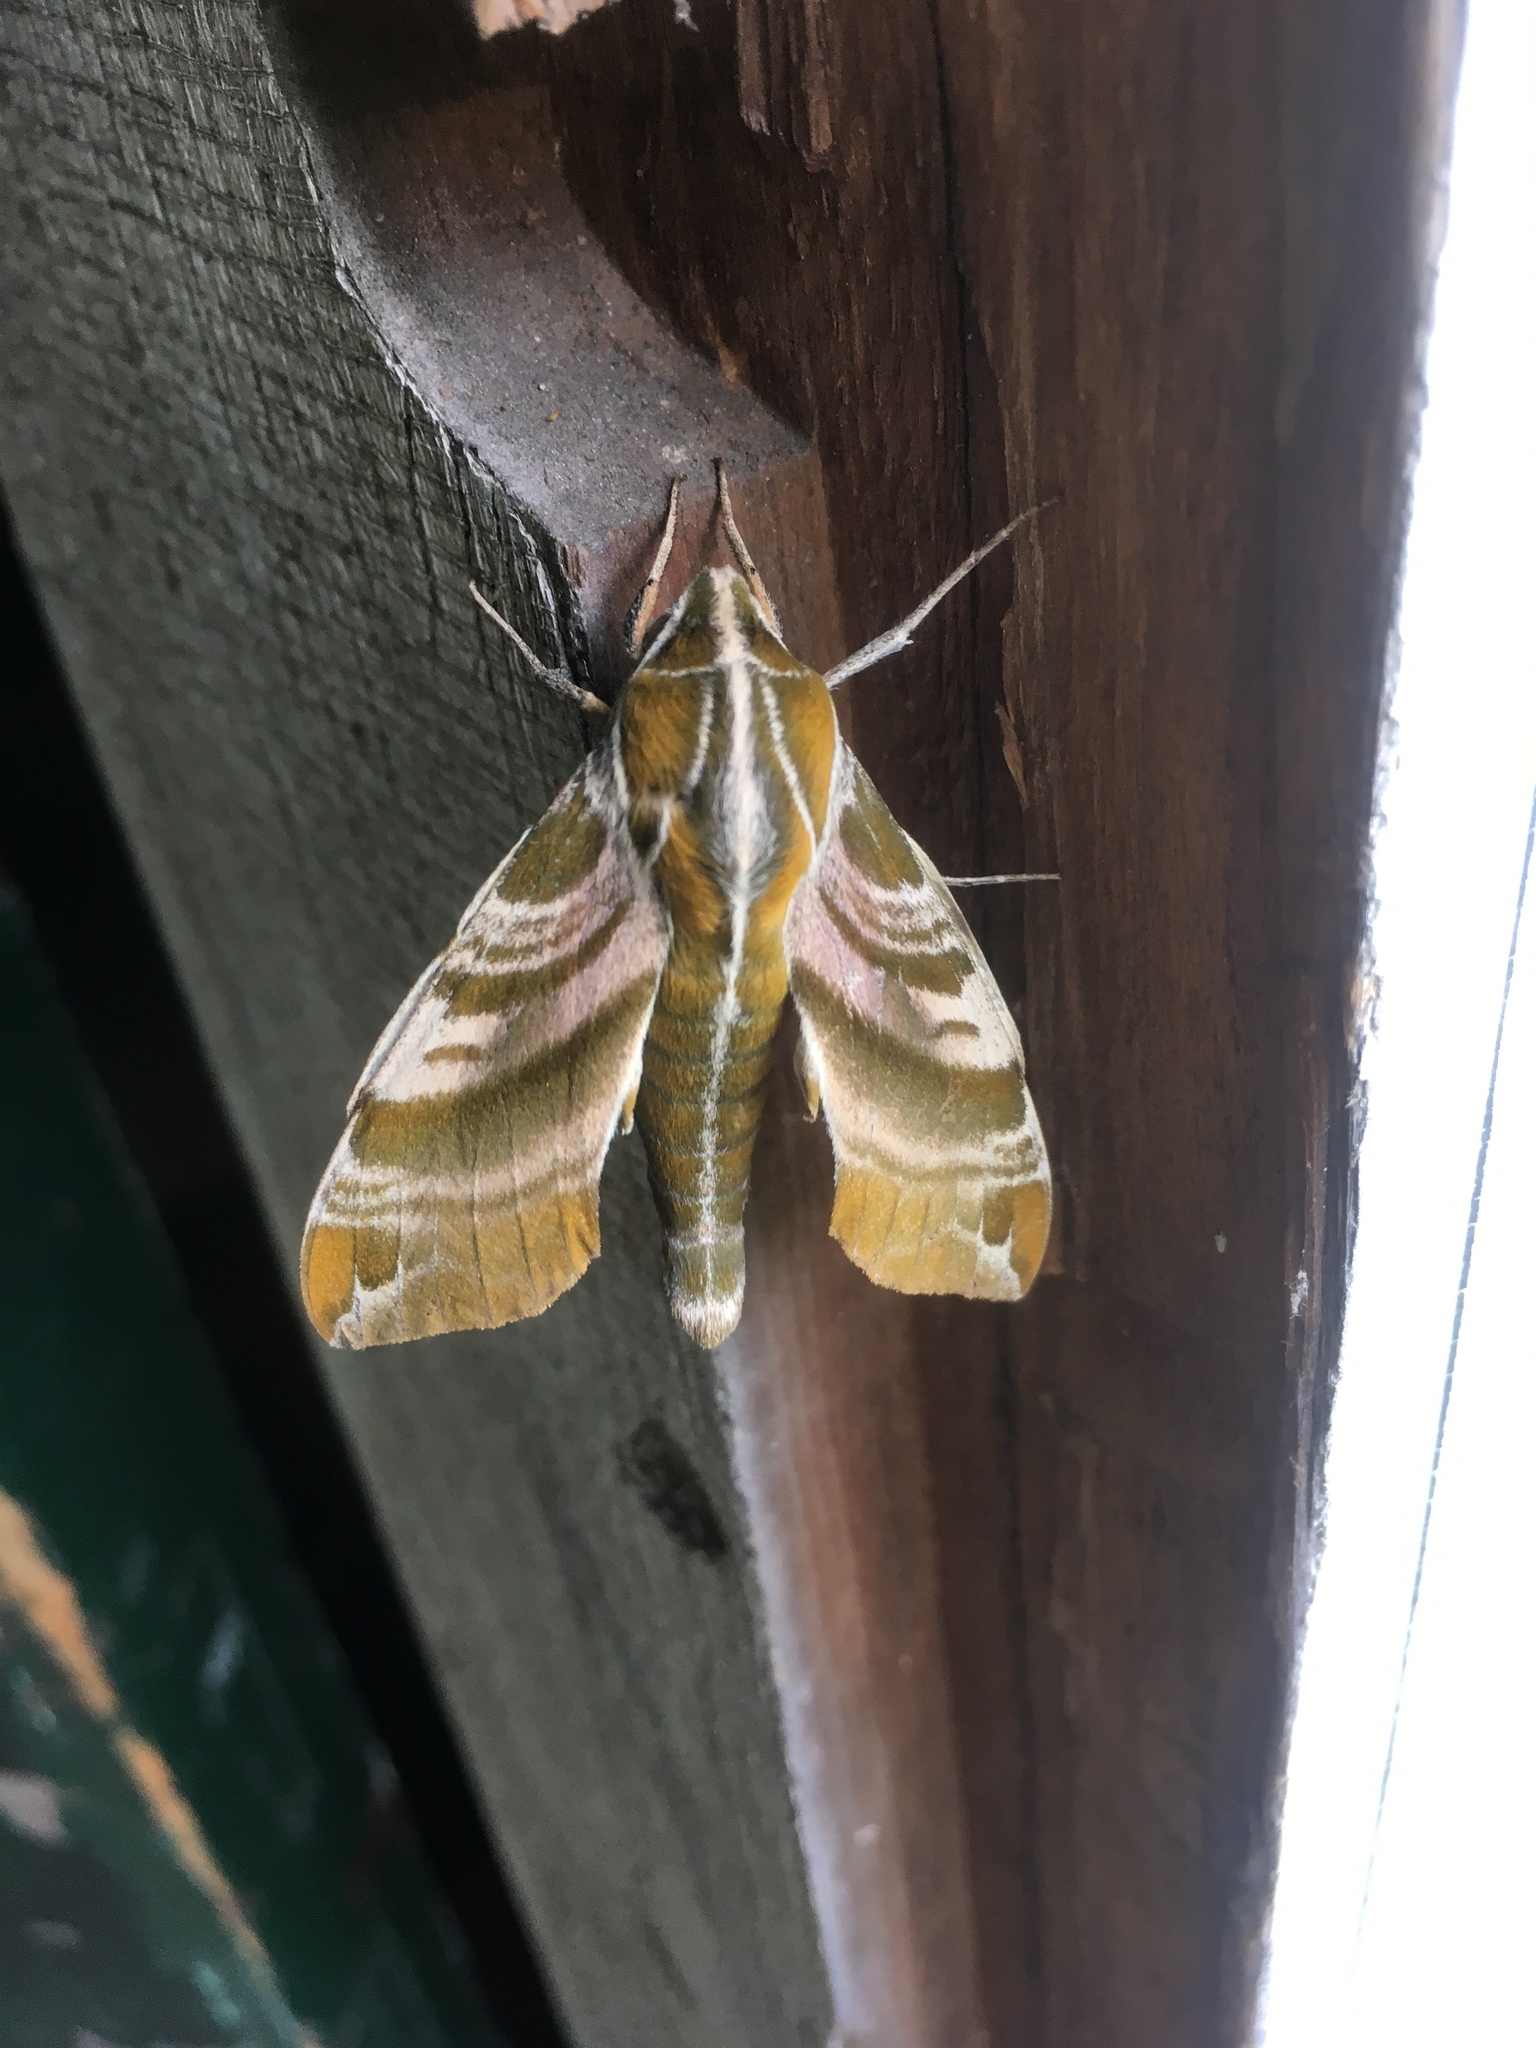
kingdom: Animalia
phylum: Arthropoda
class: Insecta
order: Lepidoptera
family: Sphingidae
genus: Darapsa
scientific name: Darapsa versicolor
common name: Hydrangea sphinx
